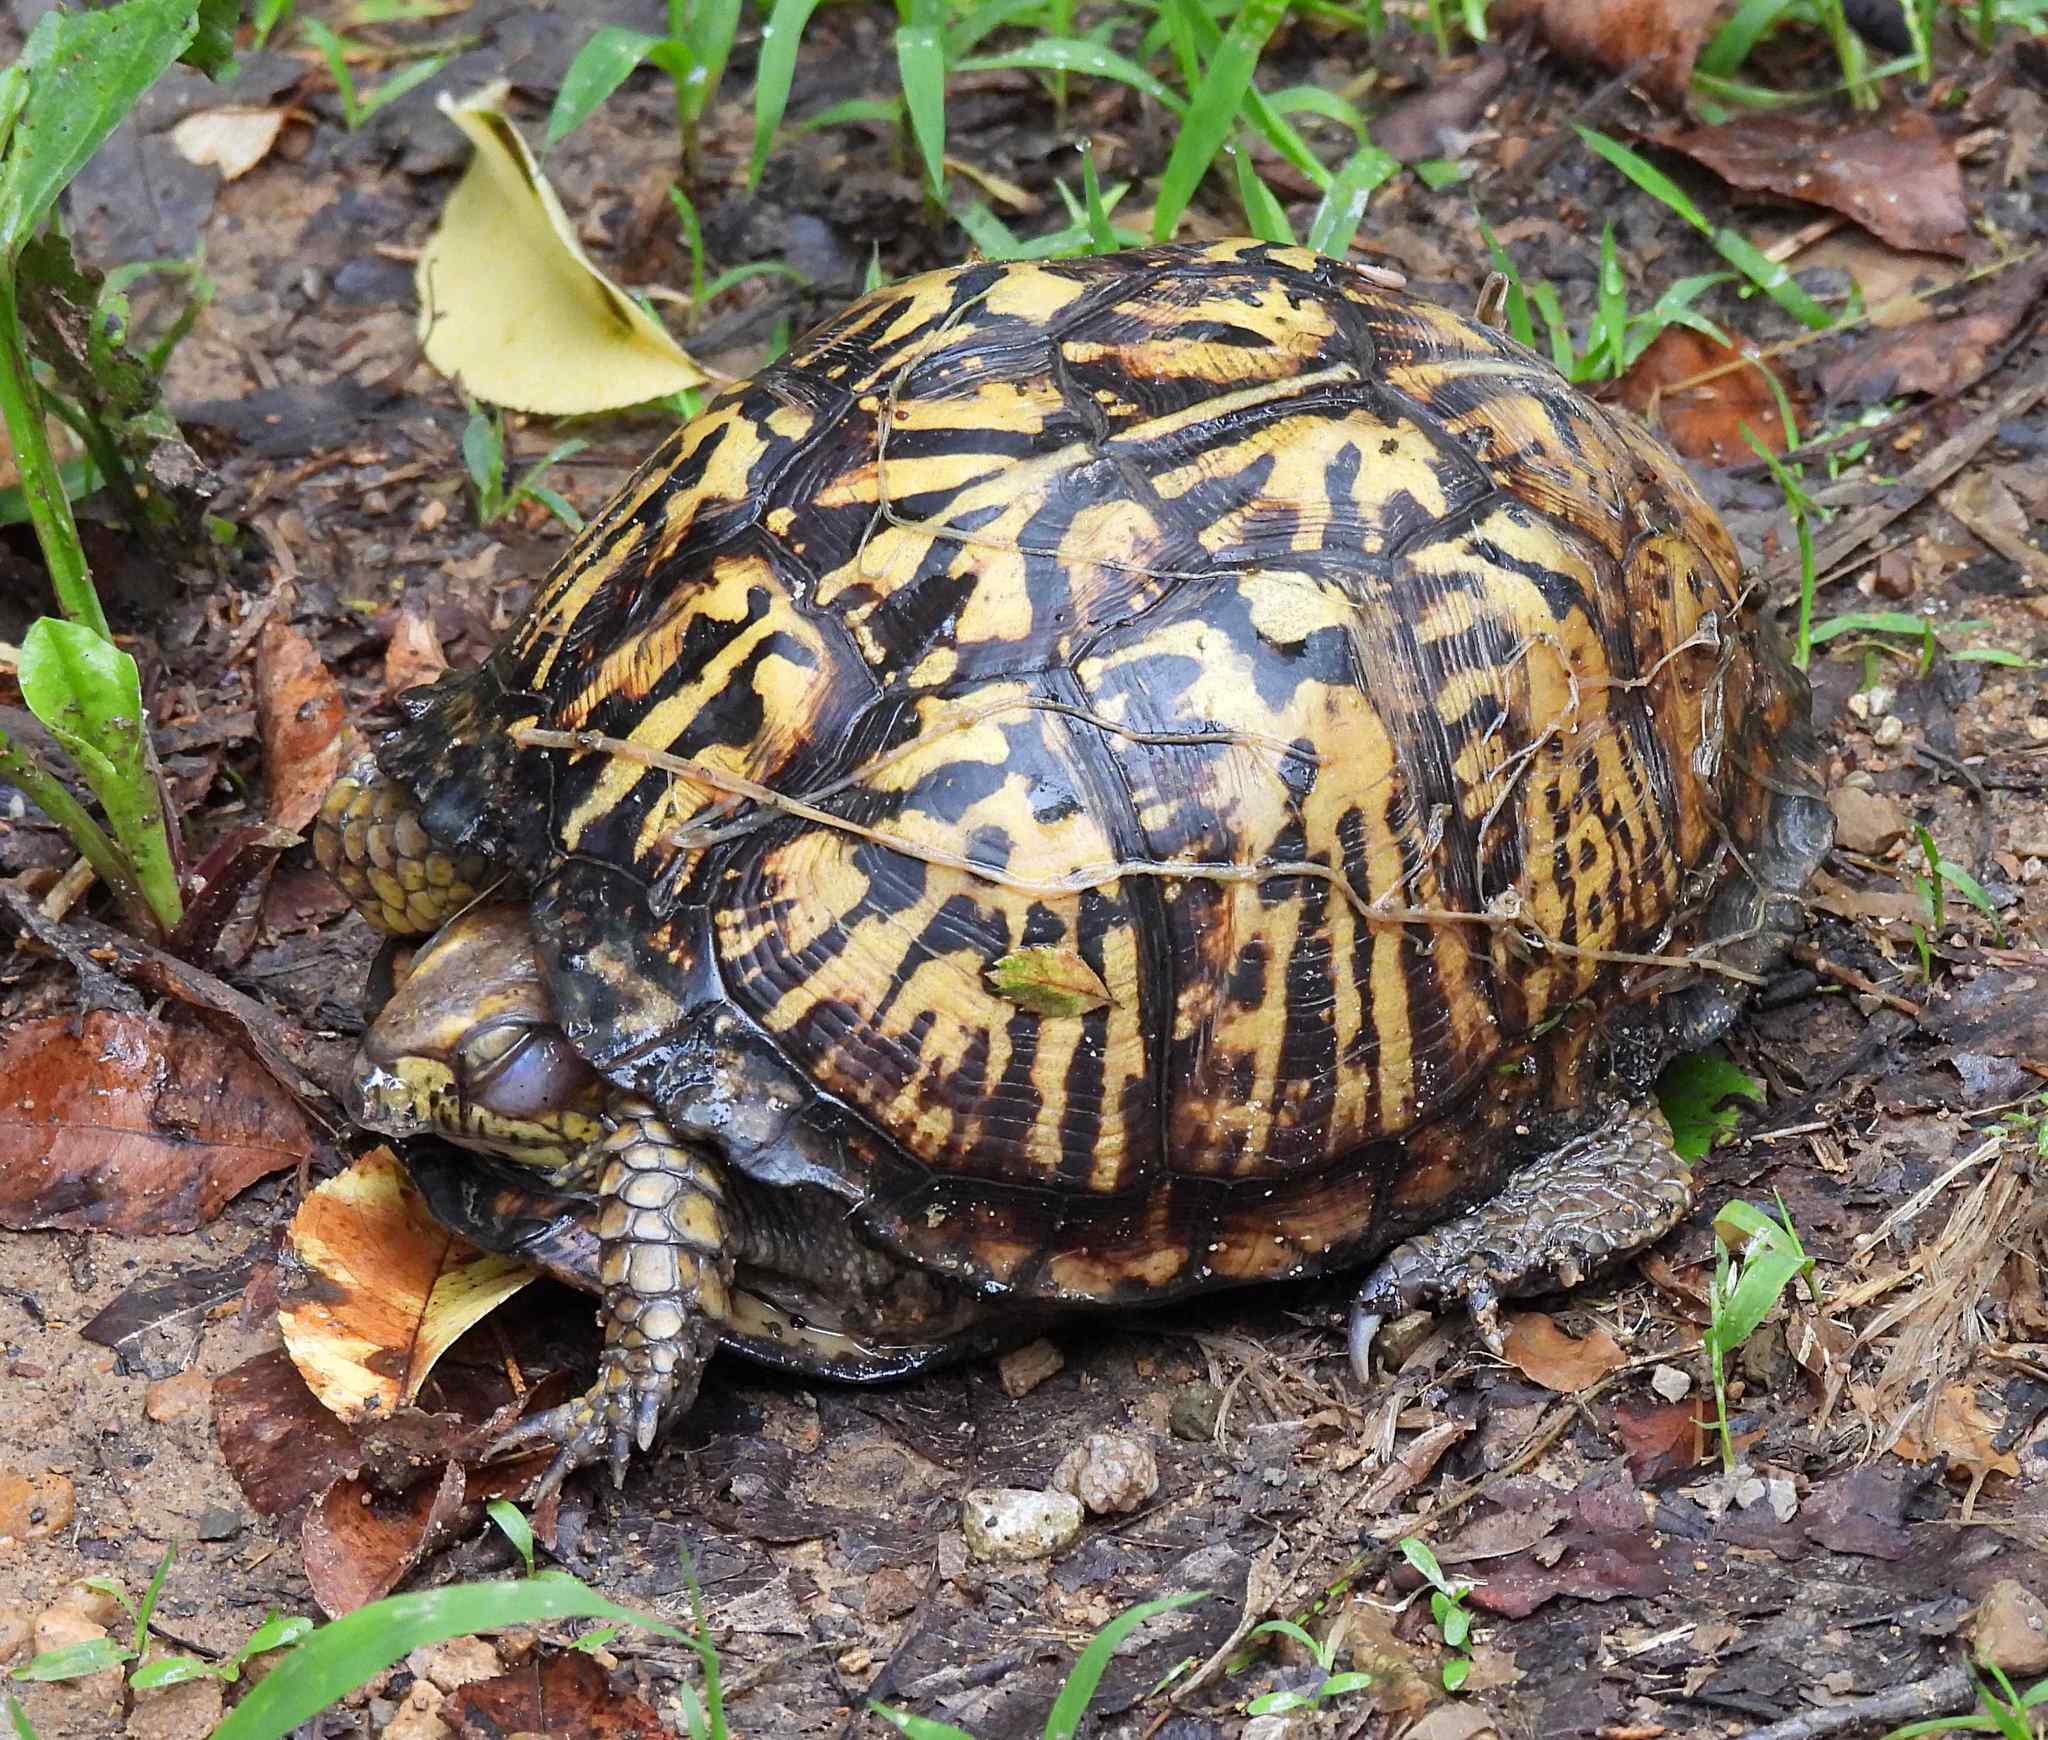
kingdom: Animalia
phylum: Chordata
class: Testudines
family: Emydidae
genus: Terrapene
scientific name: Terrapene carolina
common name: Common box turtle
